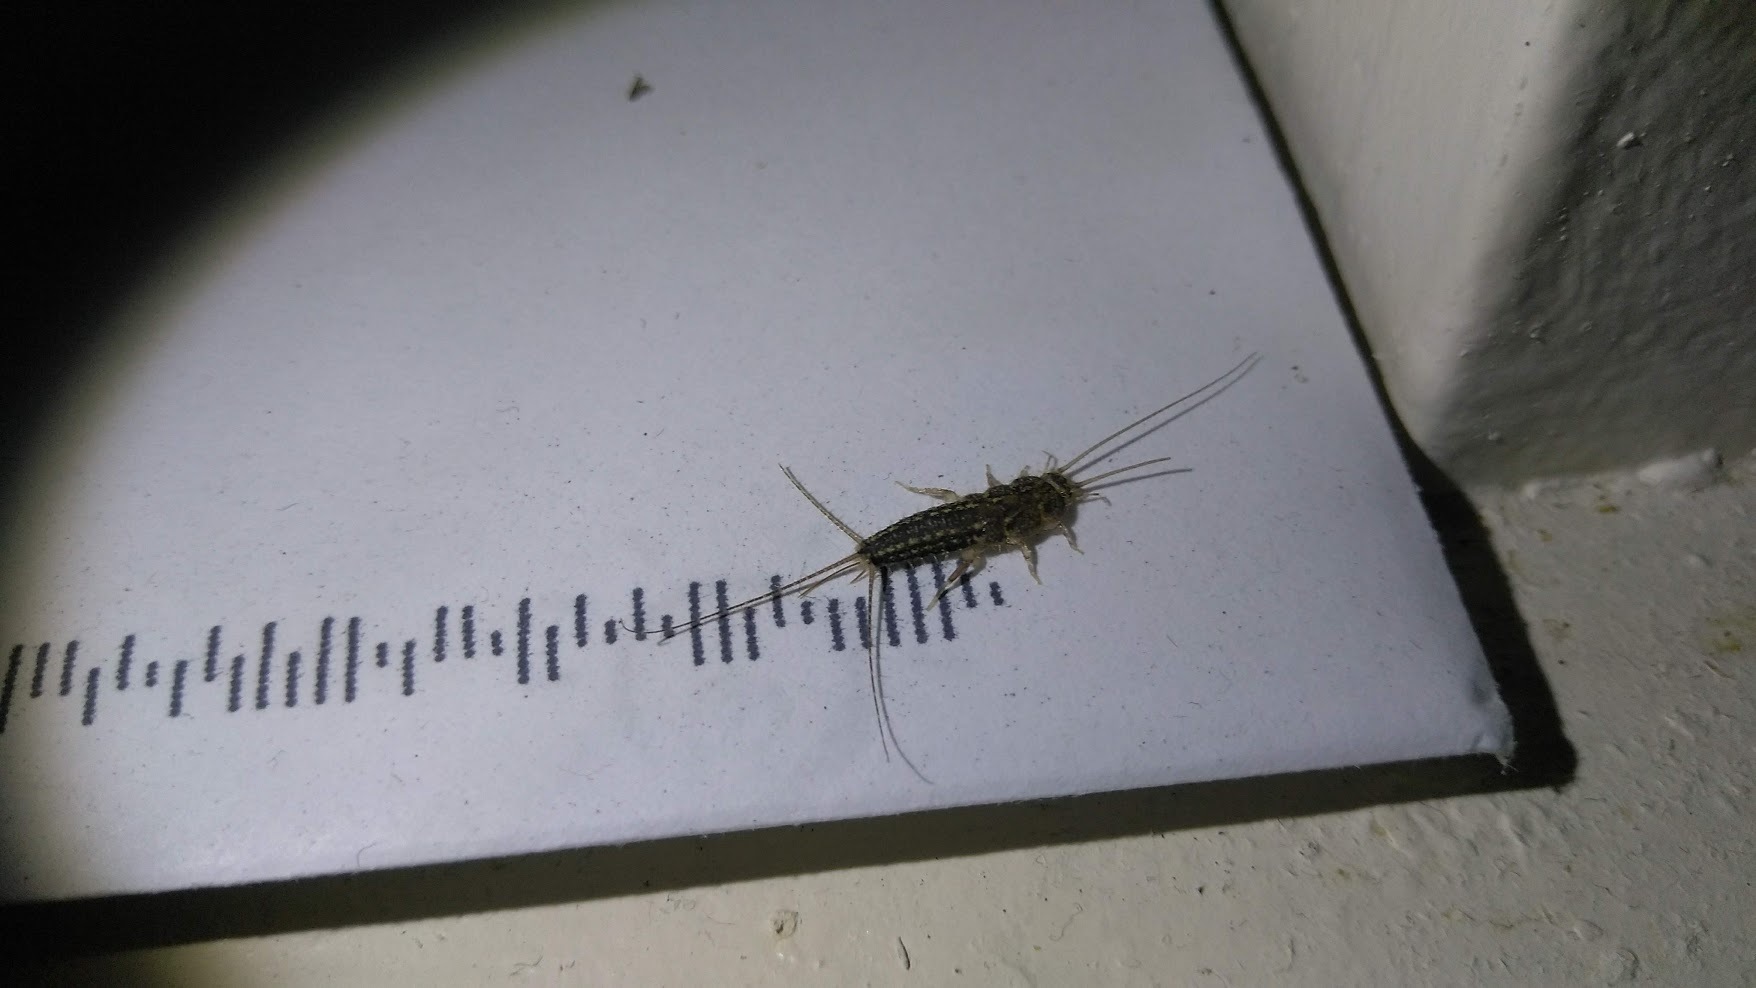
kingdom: Animalia
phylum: Arthropoda
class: Insecta
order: Zygentoma
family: Lepismatidae
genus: Ctenolepisma
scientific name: Ctenolepisma lineata
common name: Four-lined silverfish
